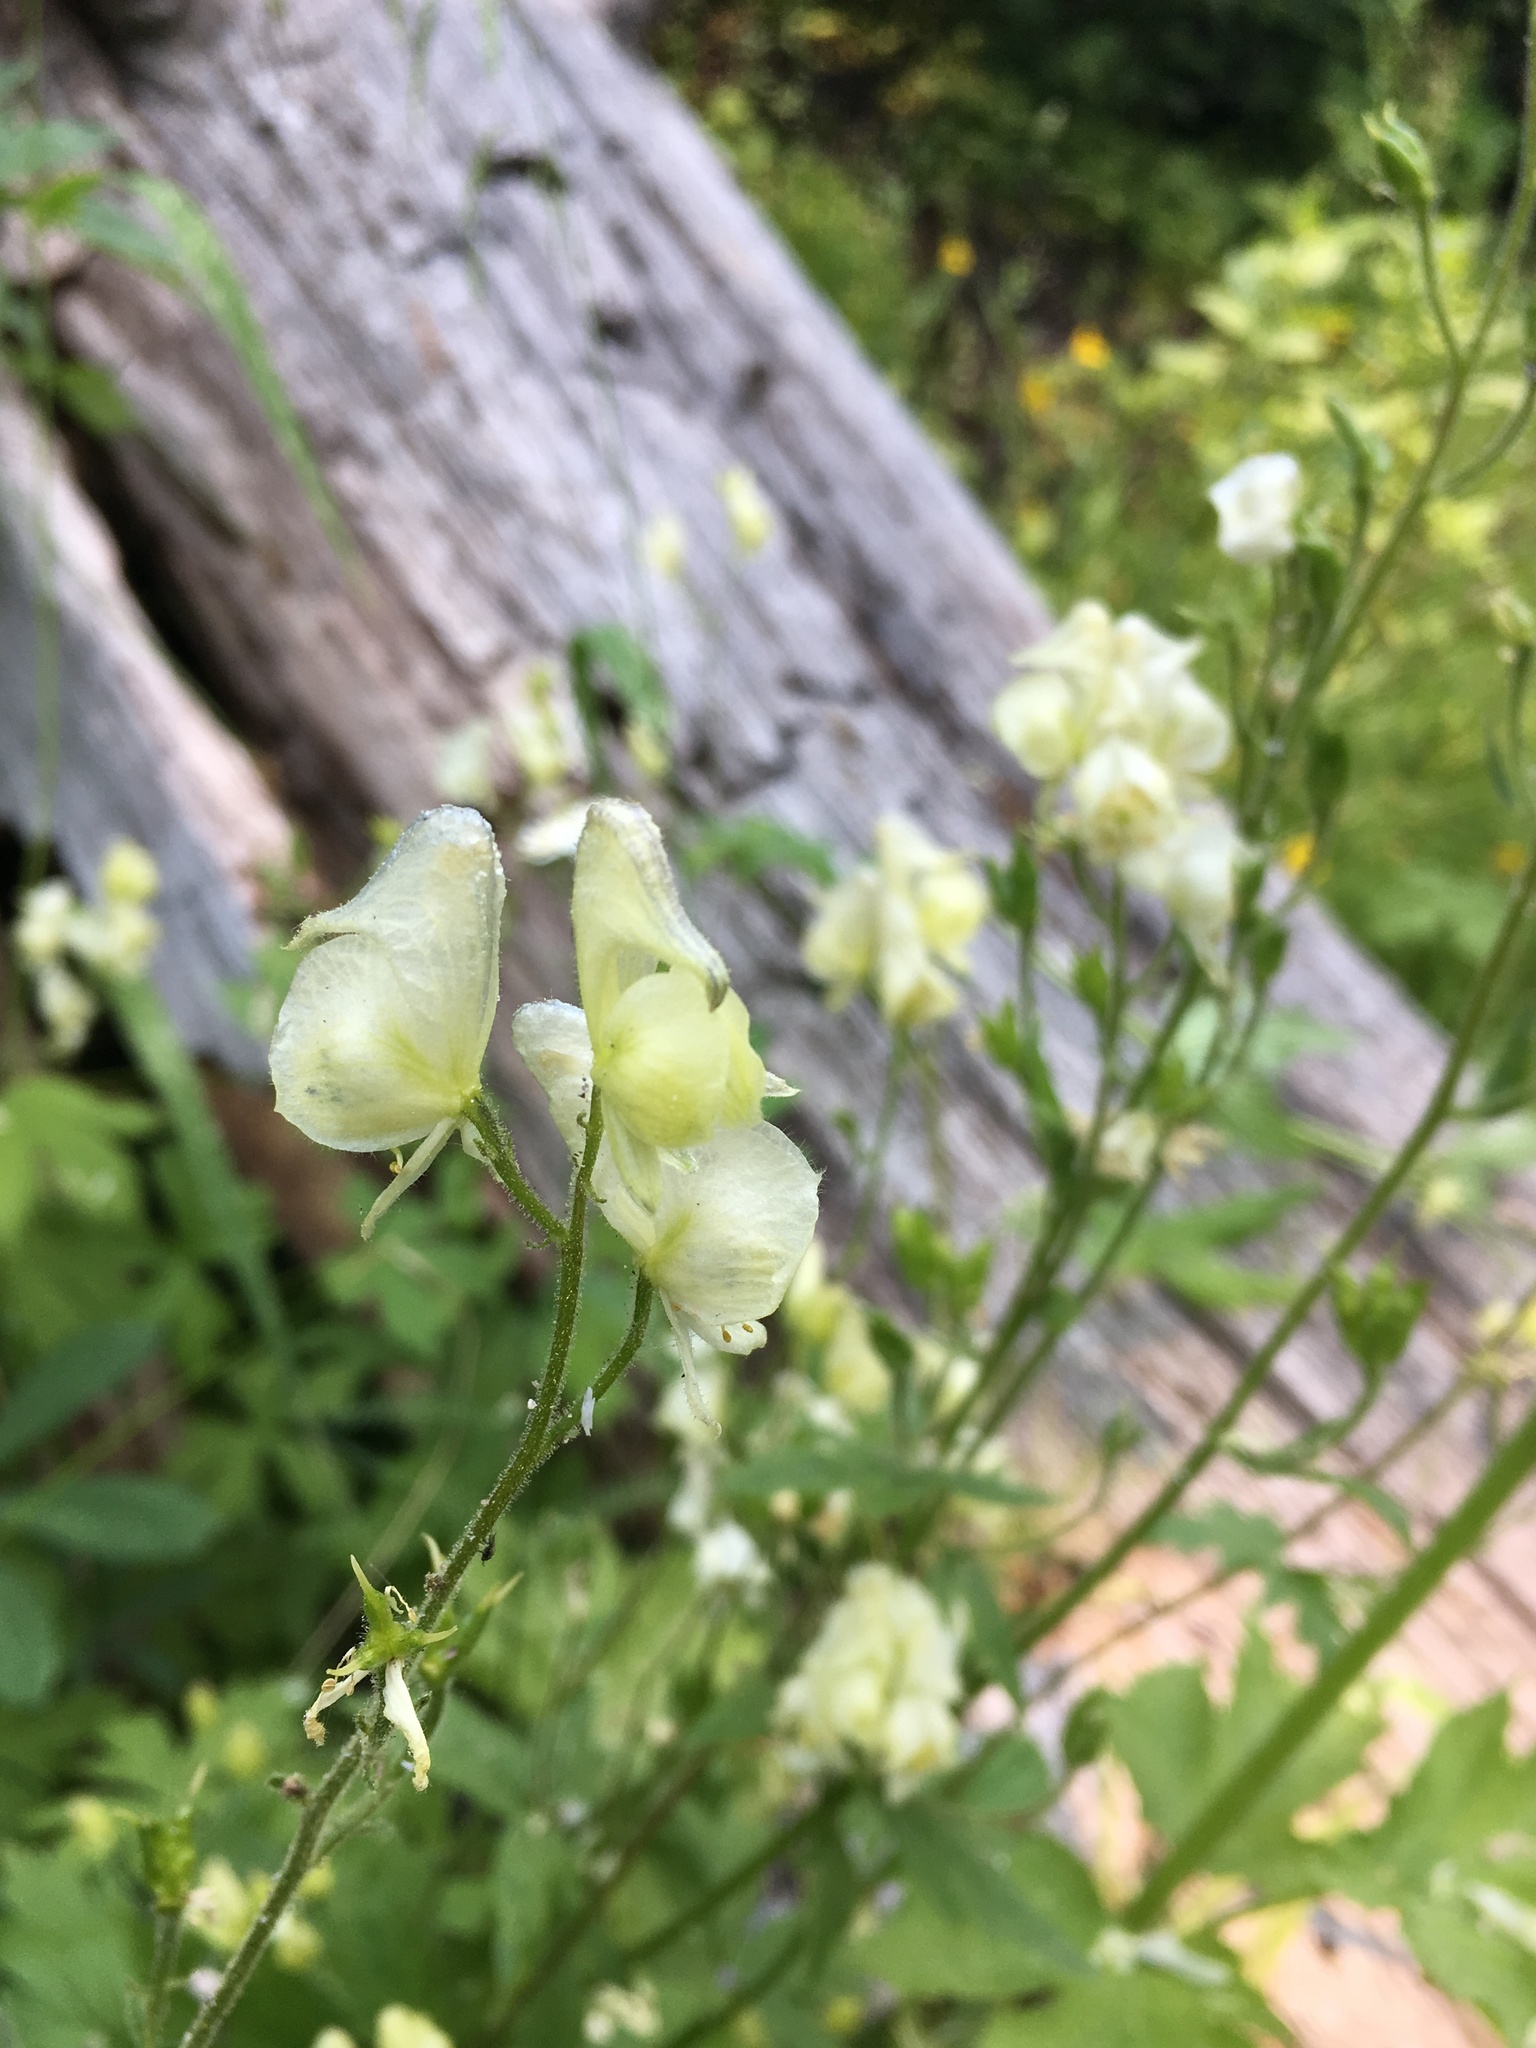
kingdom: Plantae
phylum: Tracheophyta
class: Magnoliopsida
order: Ranunculales
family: Ranunculaceae
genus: Aconitum
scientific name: Aconitum columbianum
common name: Columbia aconite
